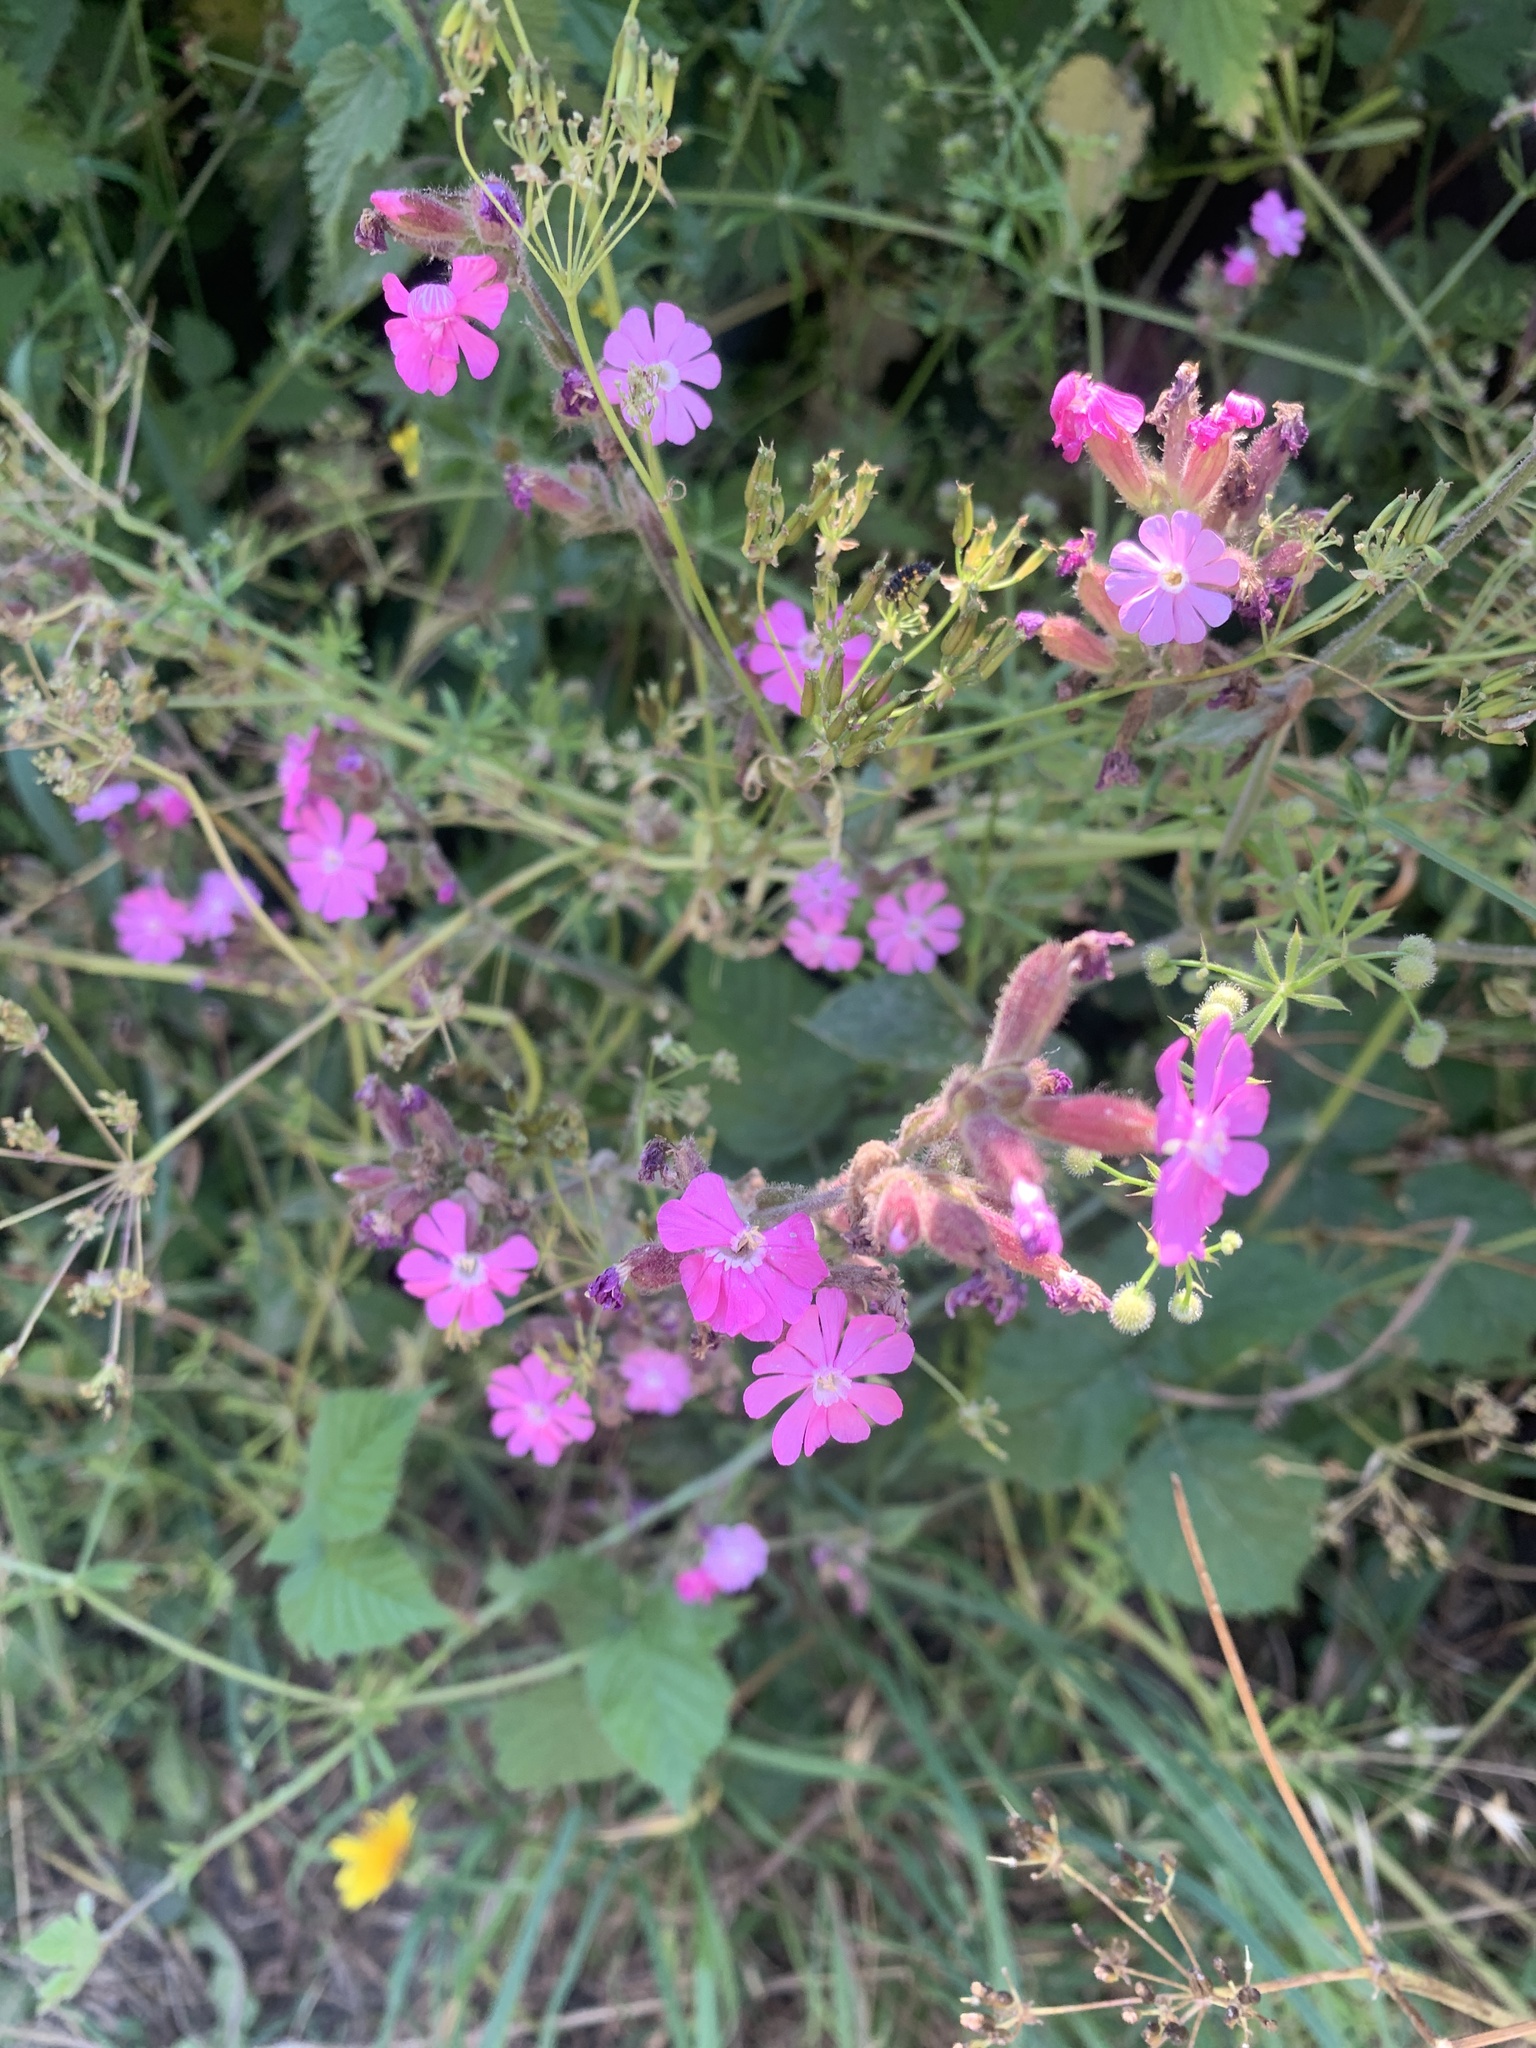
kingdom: Plantae
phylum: Tracheophyta
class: Magnoliopsida
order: Caryophyllales
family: Caryophyllaceae
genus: Silene
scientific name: Silene dioica
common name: Red campion
